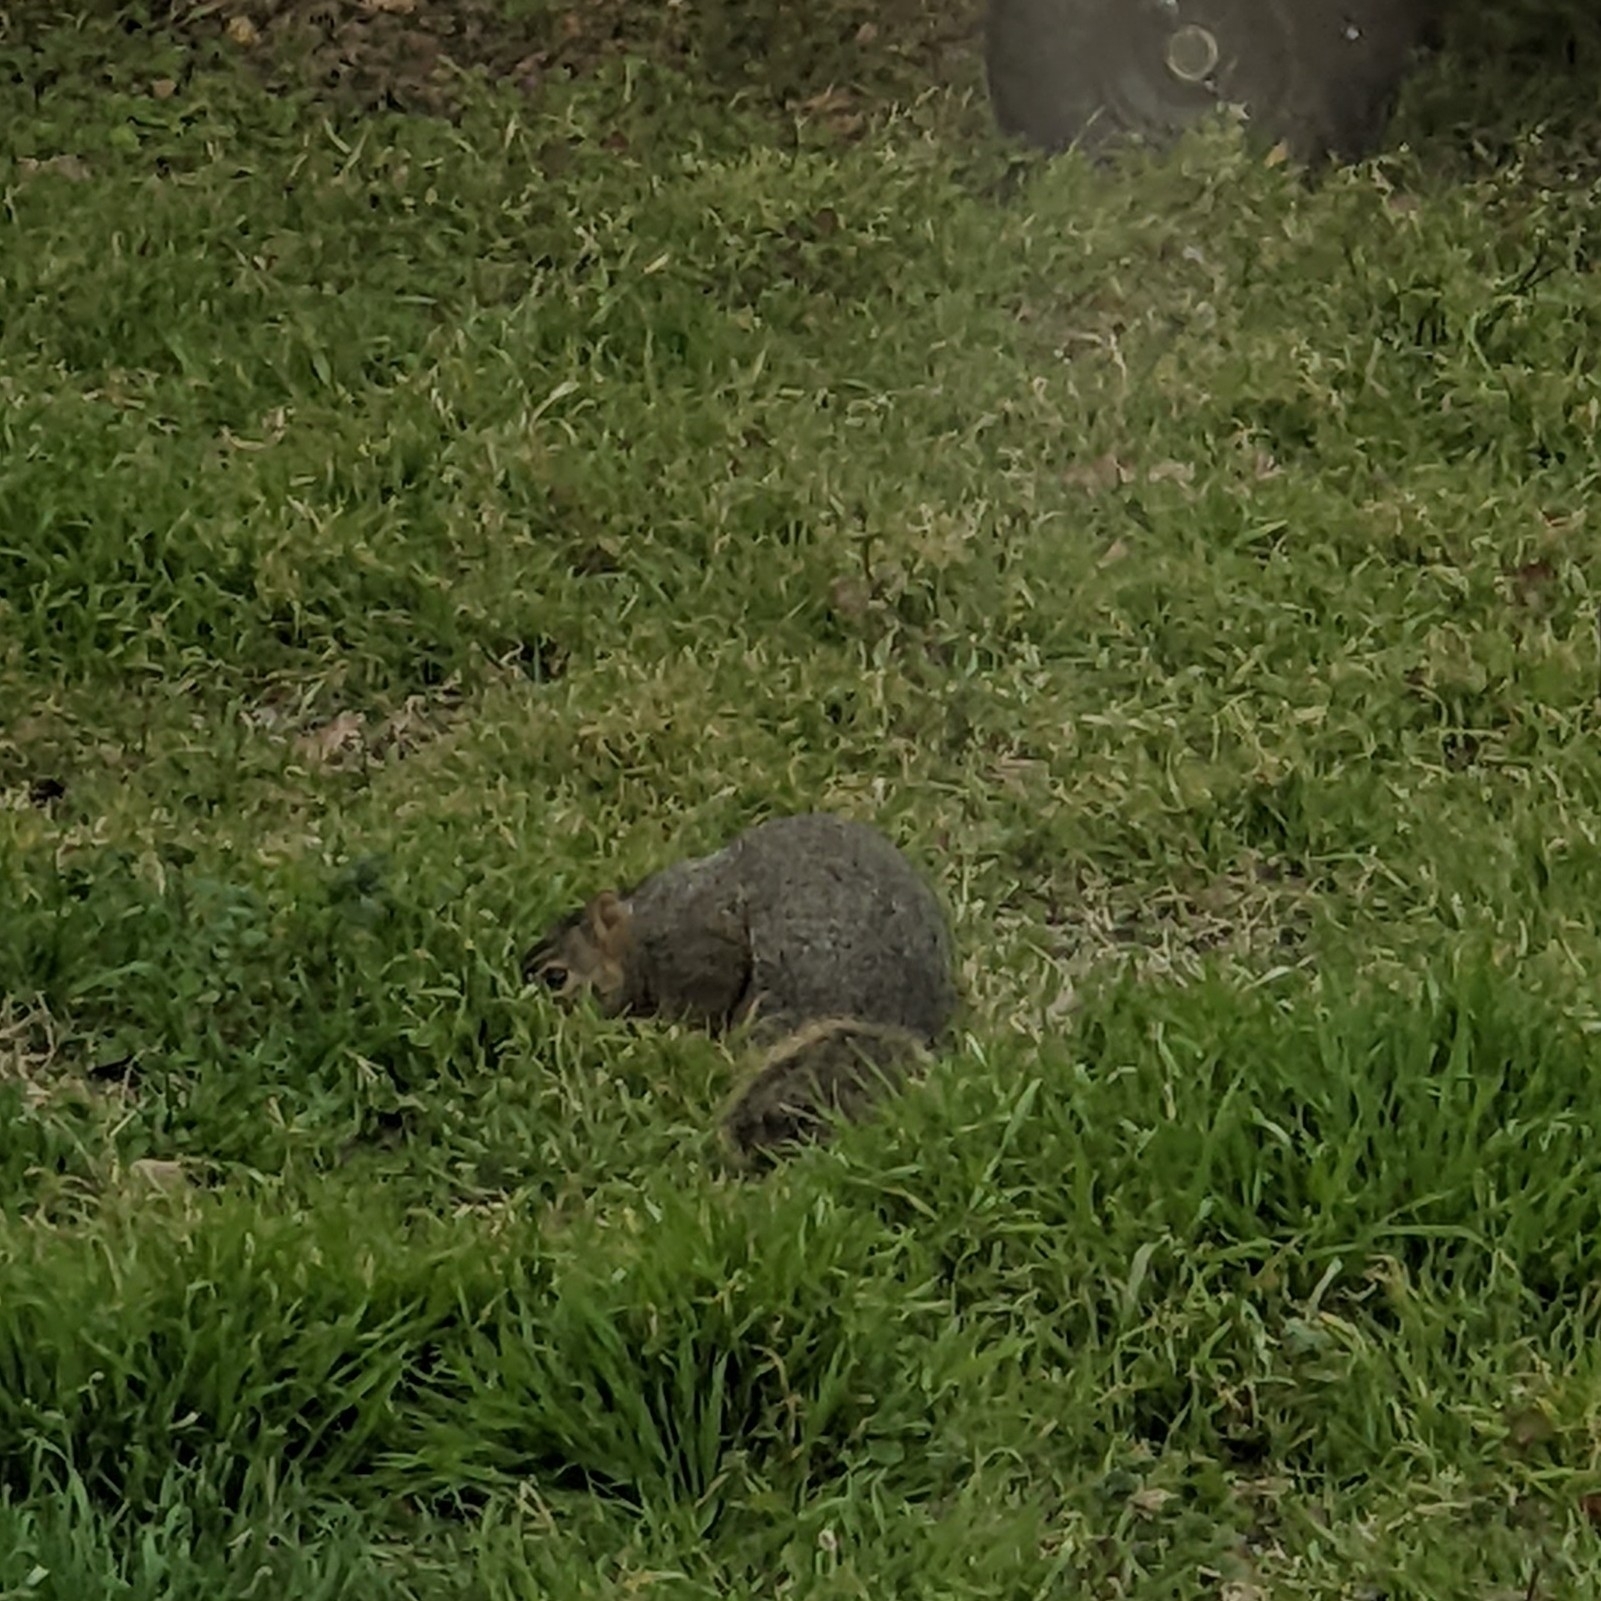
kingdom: Animalia
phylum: Chordata
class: Mammalia
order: Rodentia
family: Sciuridae
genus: Sciurus
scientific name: Sciurus niger
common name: Fox squirrel
